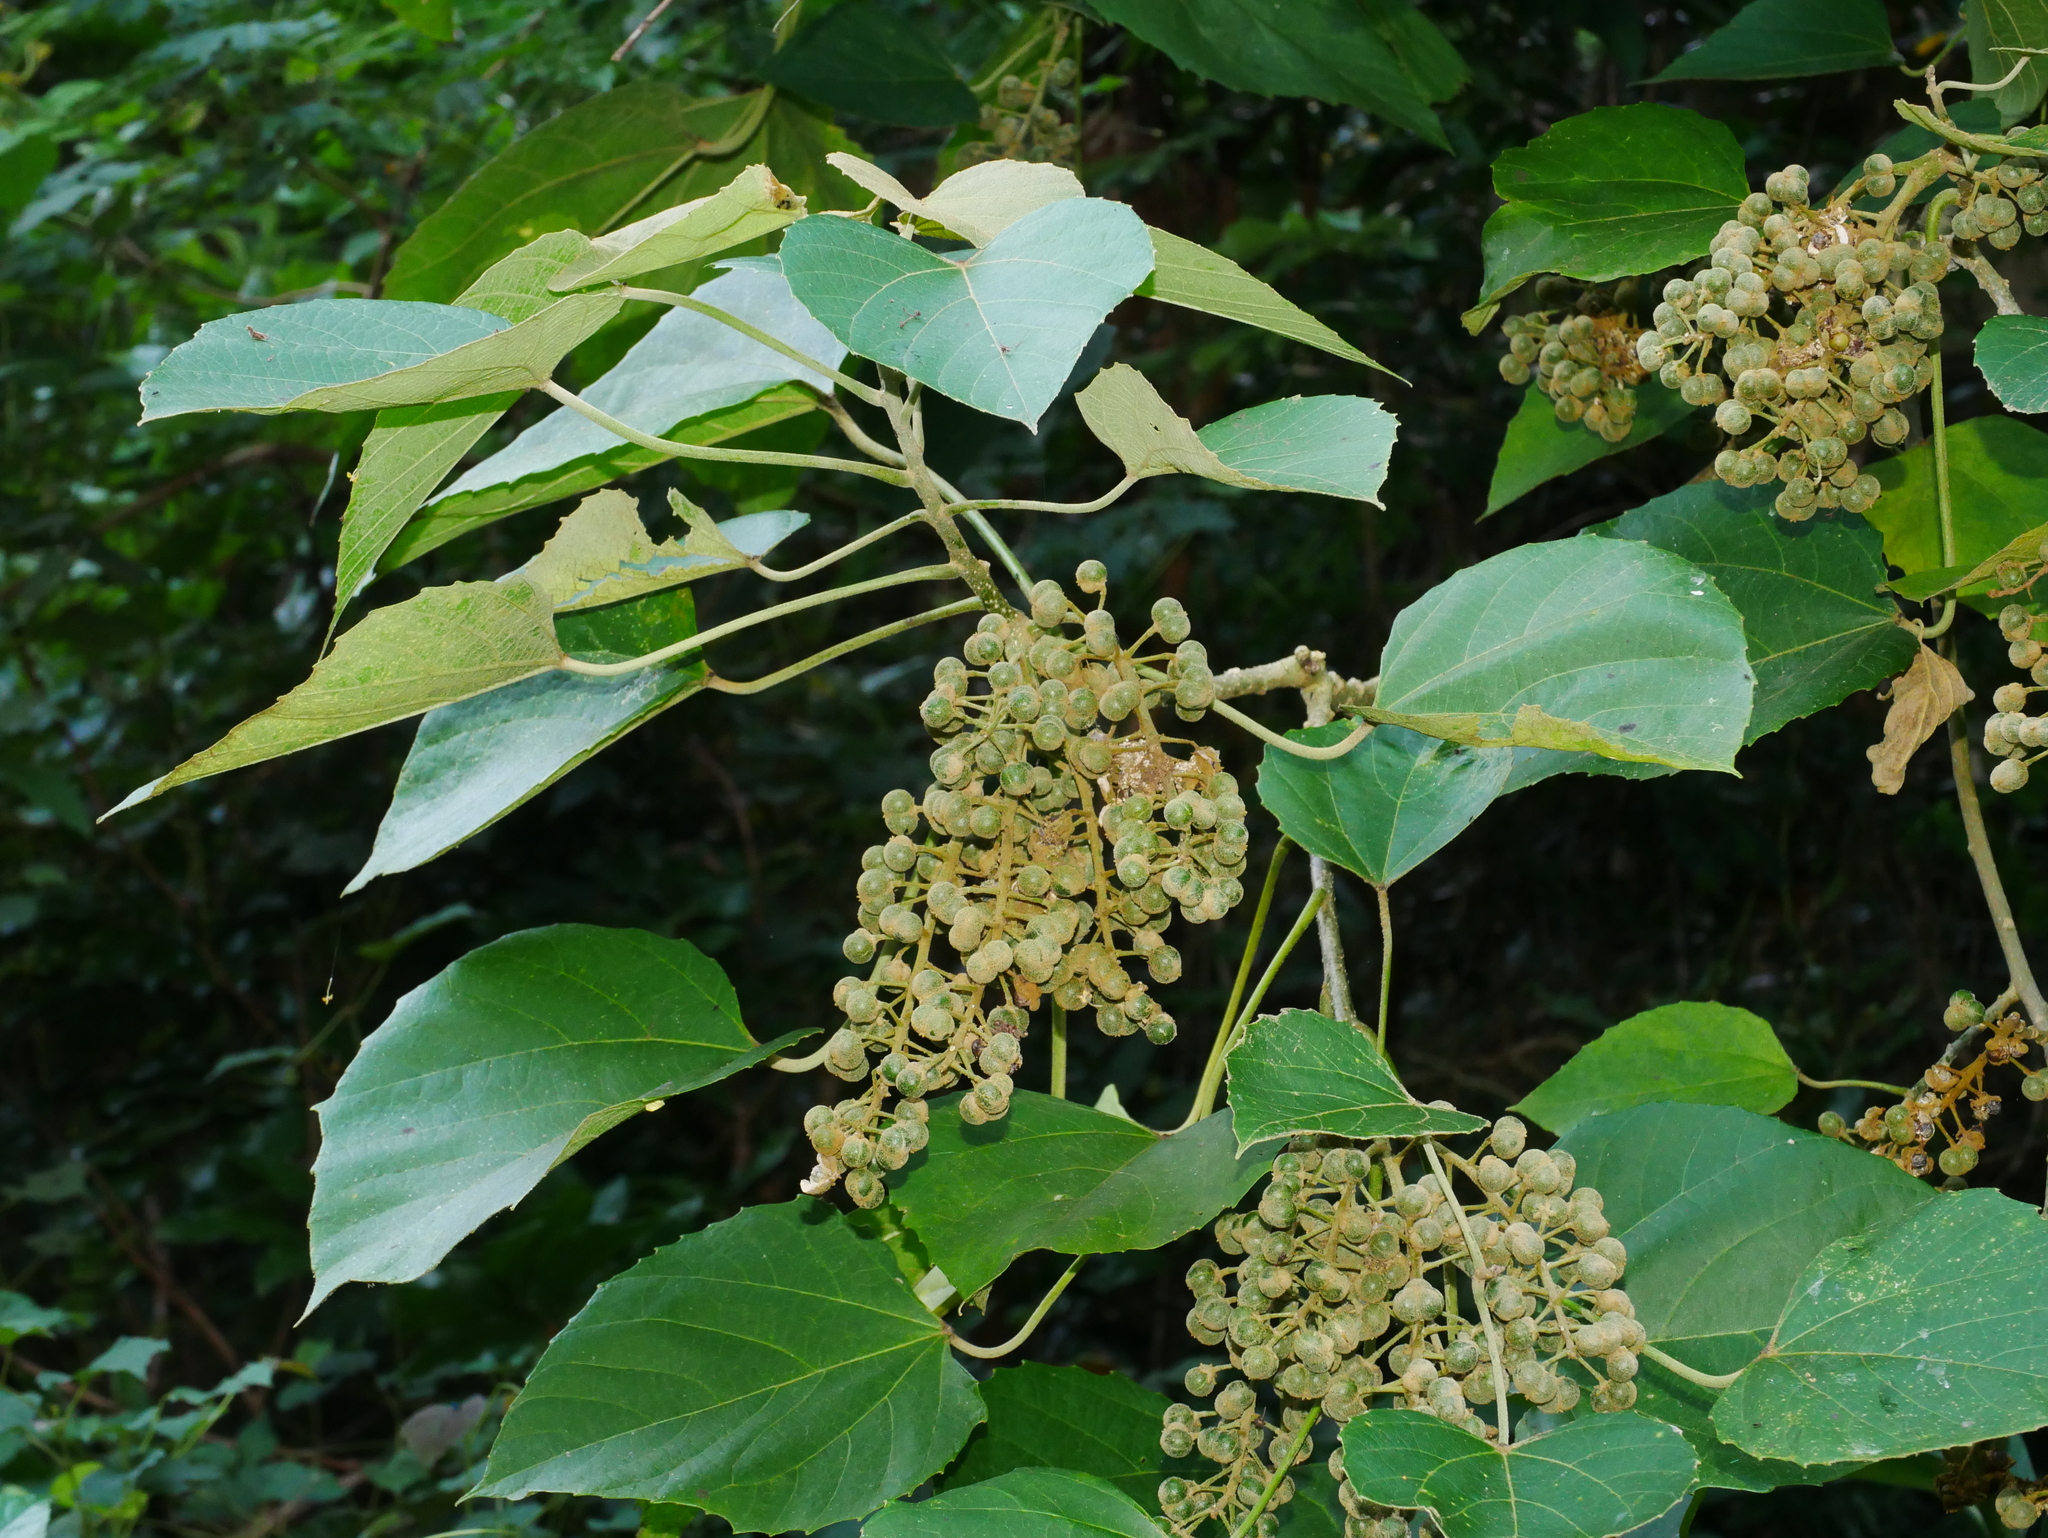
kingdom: Plantae
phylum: Tracheophyta
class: Magnoliopsida
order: Malpighiales
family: Euphorbiaceae
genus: Melanolepis
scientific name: Melanolepis multiglandulosa
